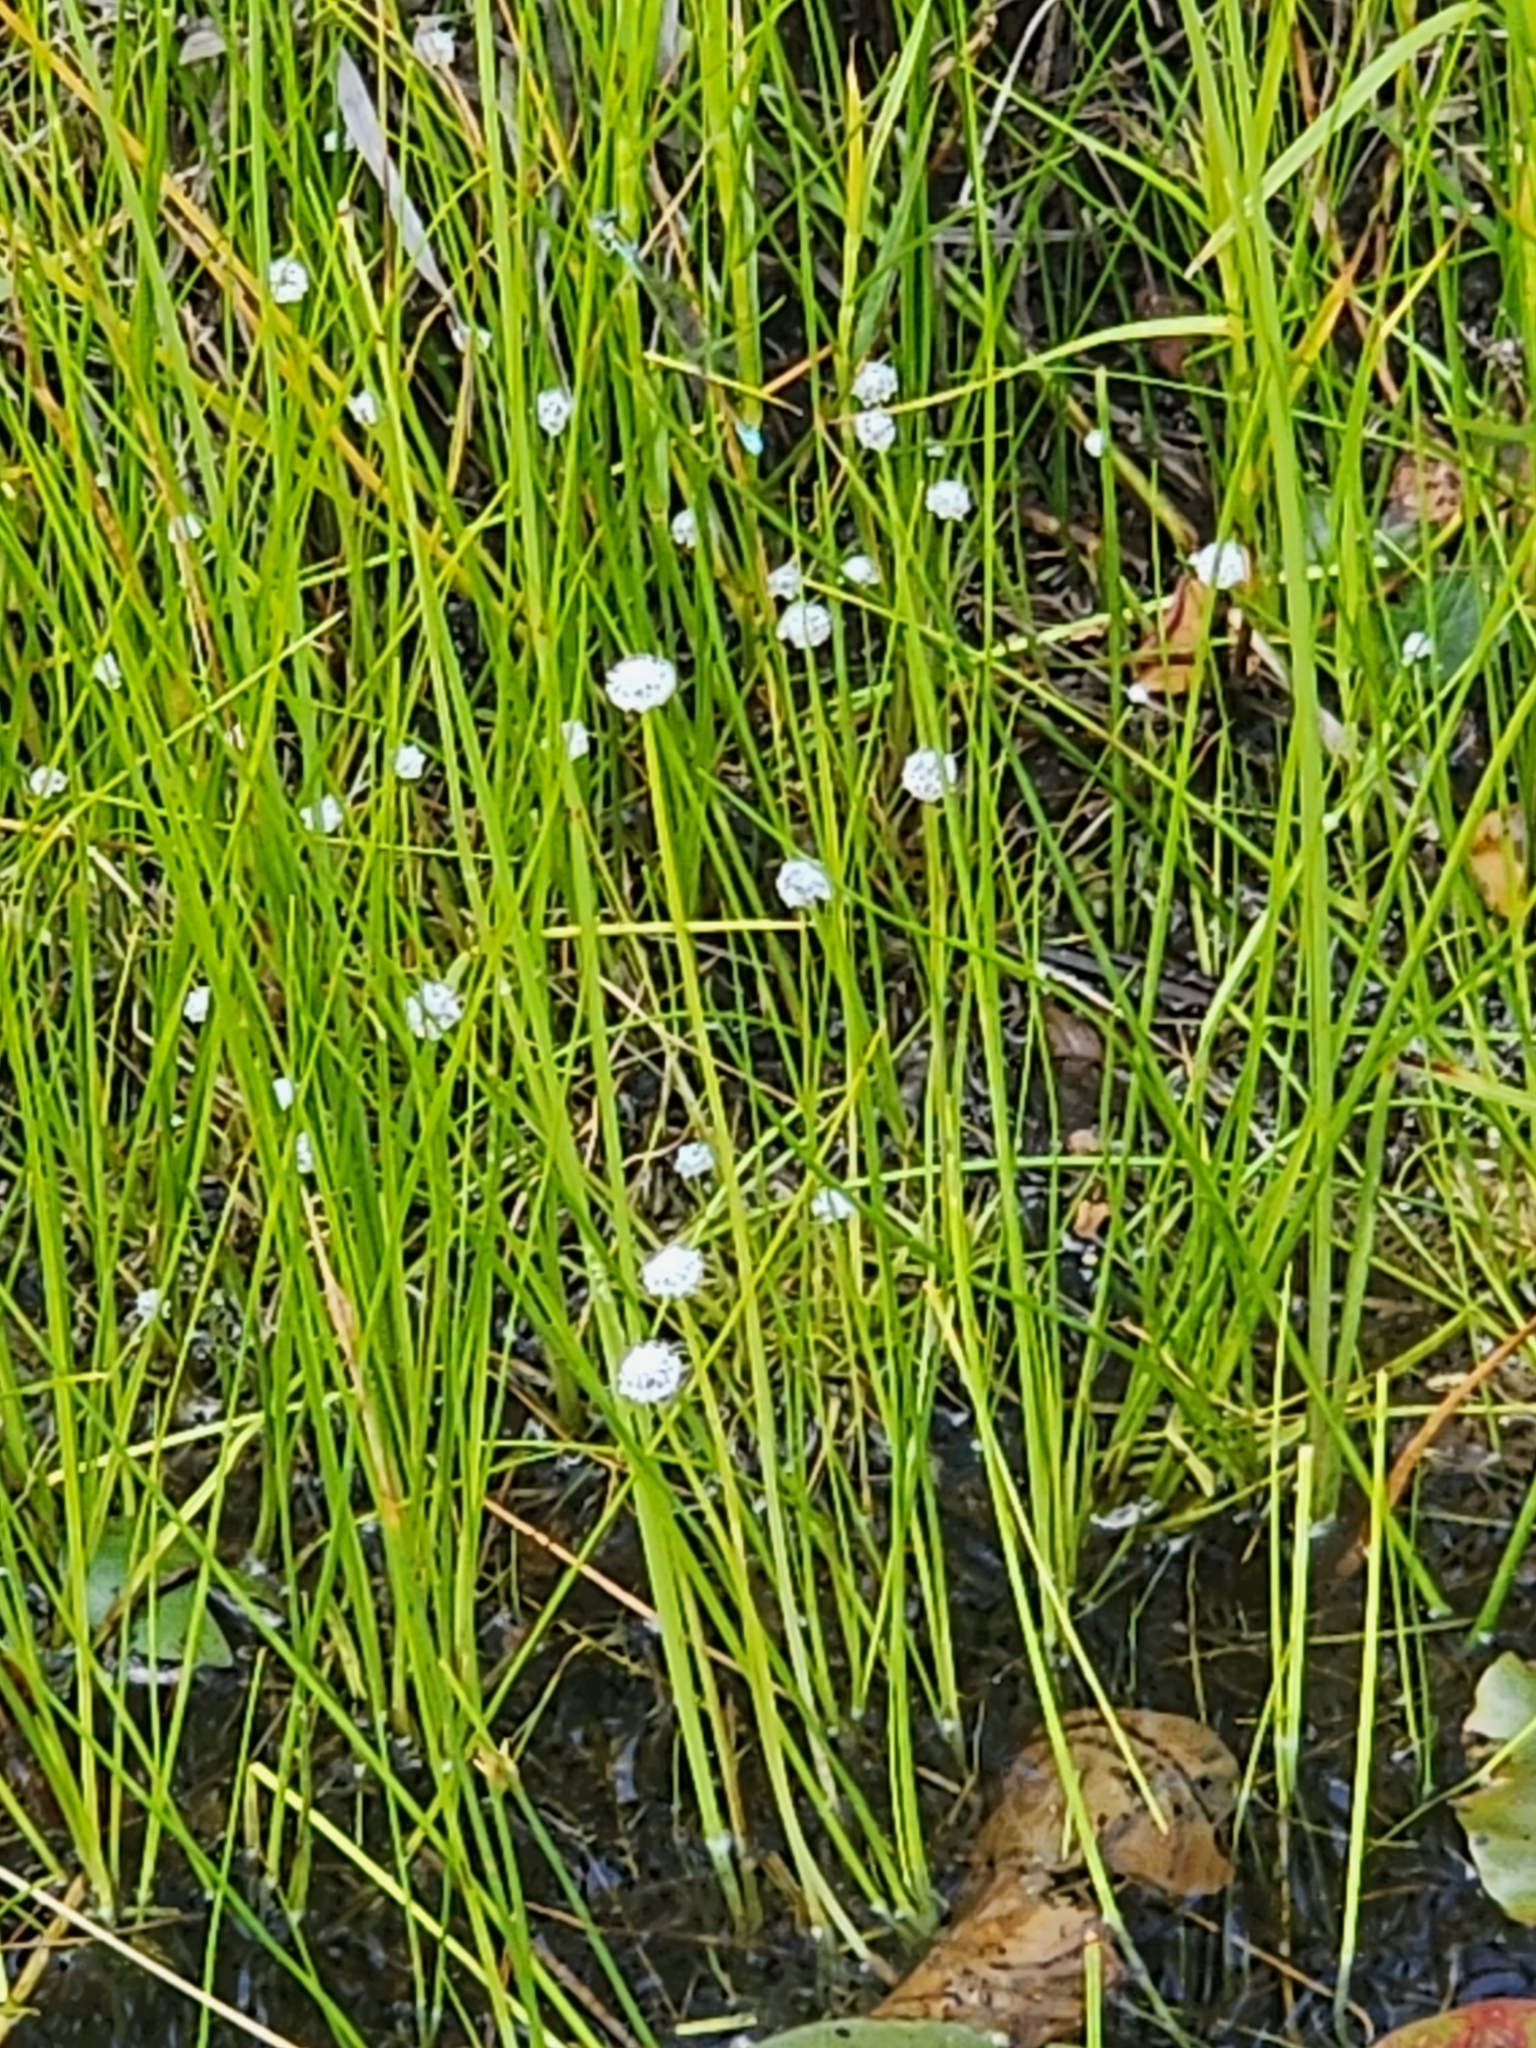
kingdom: Plantae
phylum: Tracheophyta
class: Liliopsida
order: Poales
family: Eriocaulaceae
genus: Eriocaulon
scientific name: Eriocaulon aquaticum
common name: Pipewort
